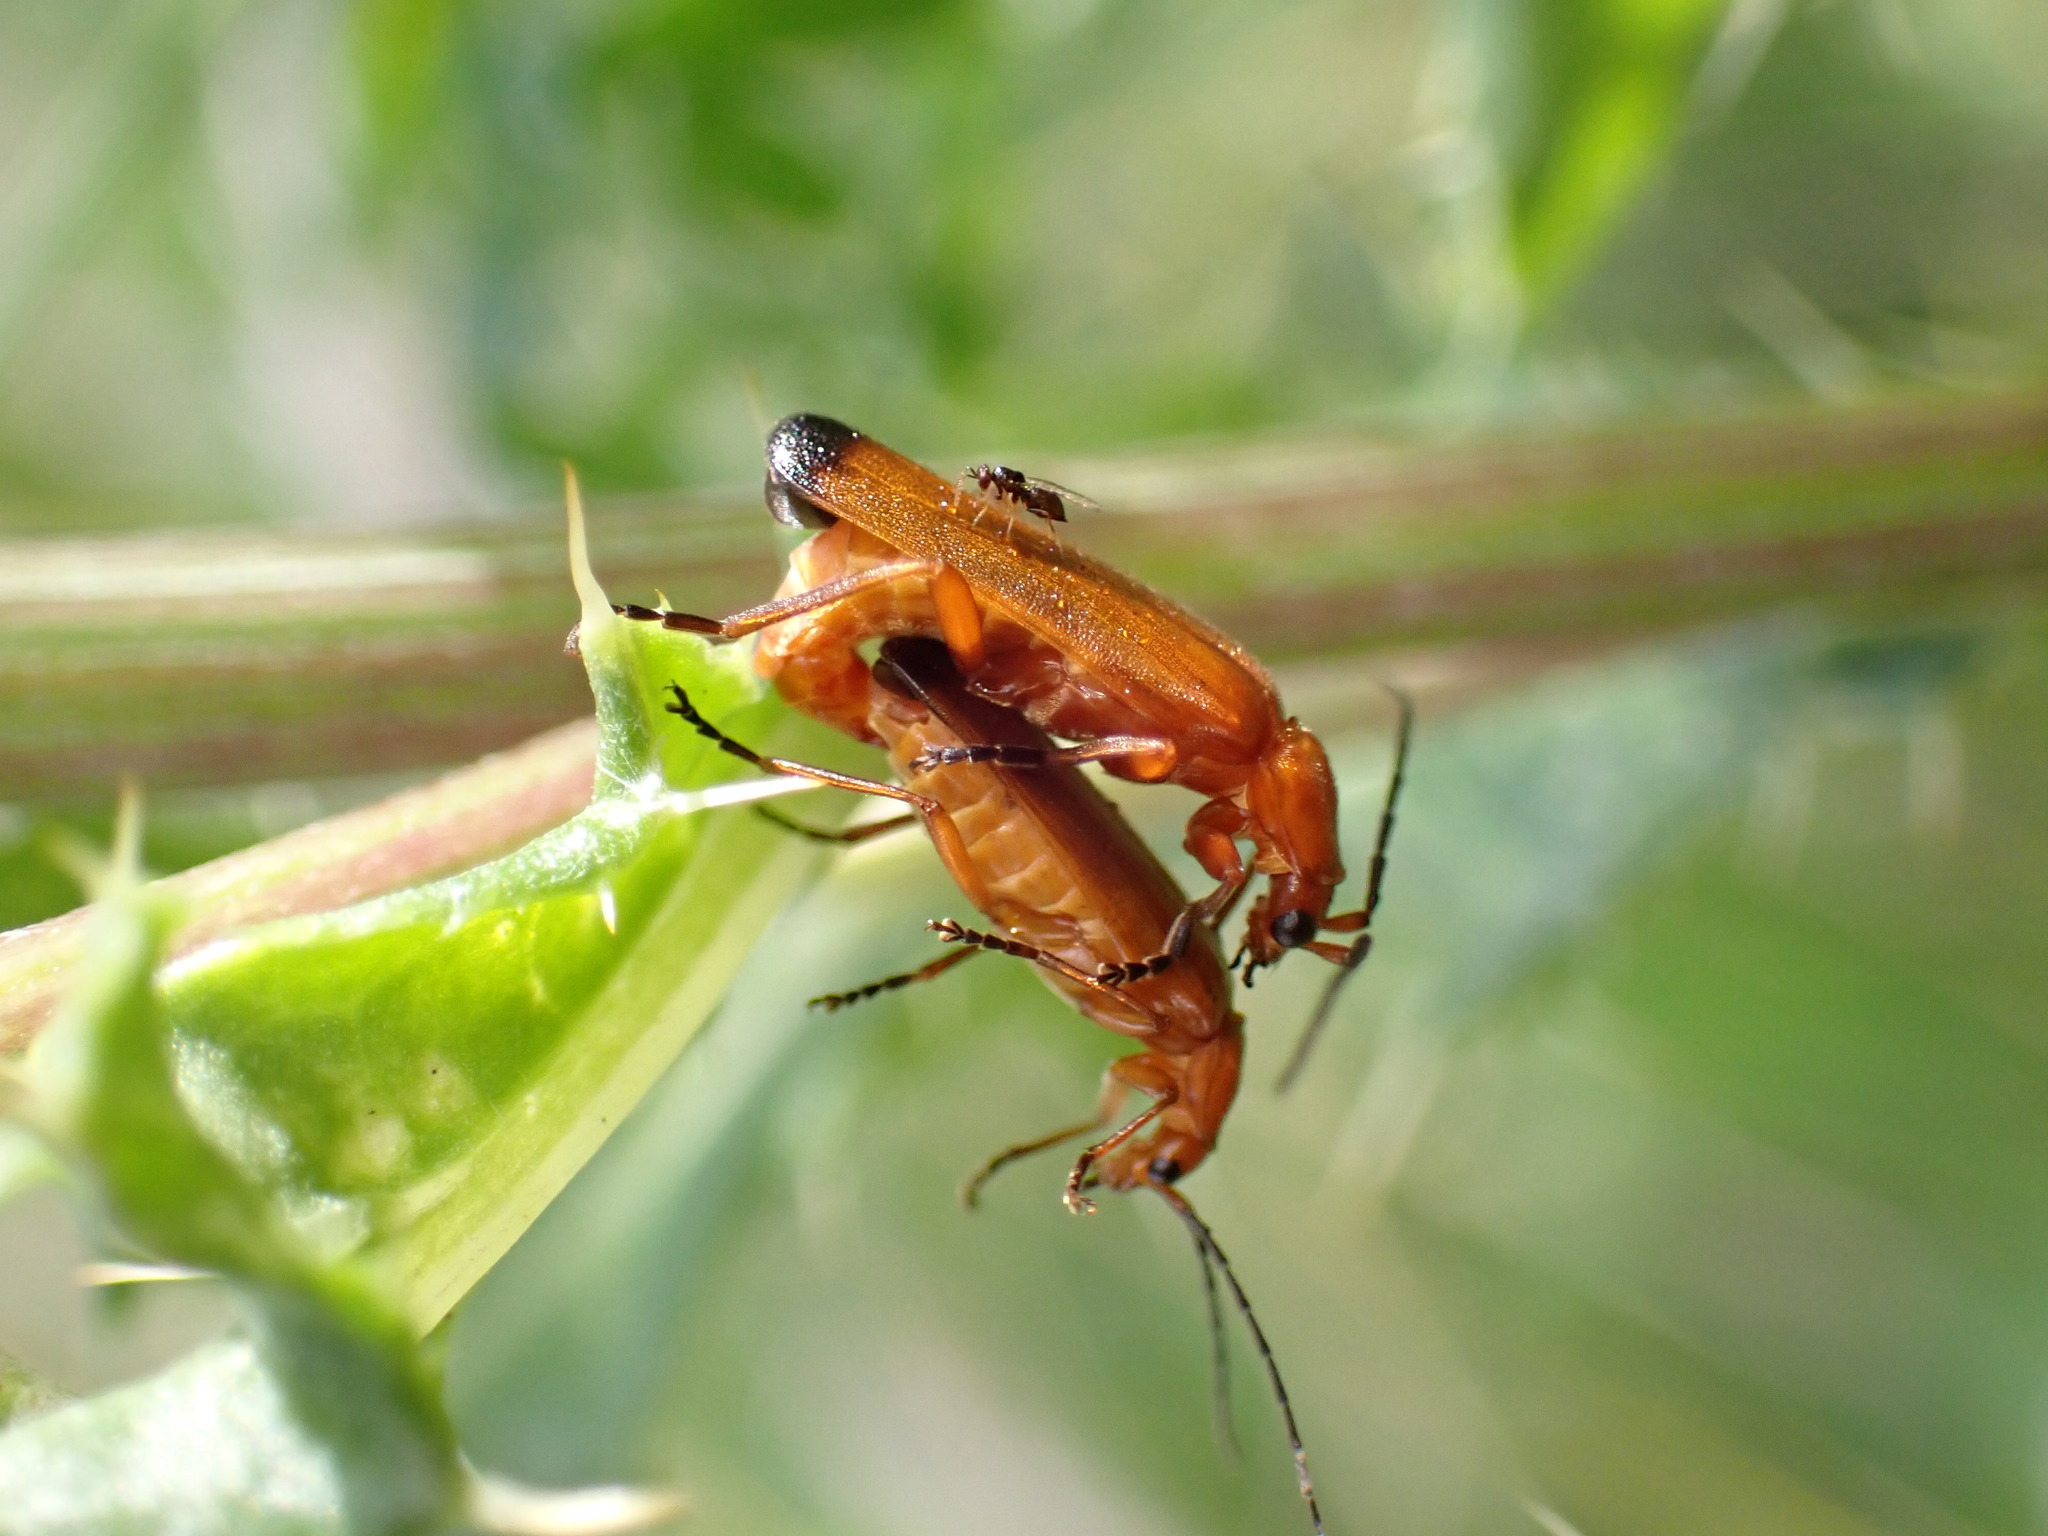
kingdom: Animalia
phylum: Arthropoda
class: Insecta
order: Coleoptera
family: Cantharidae
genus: Rhagonycha
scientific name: Rhagonycha fulva
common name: Common red soldier beetle
